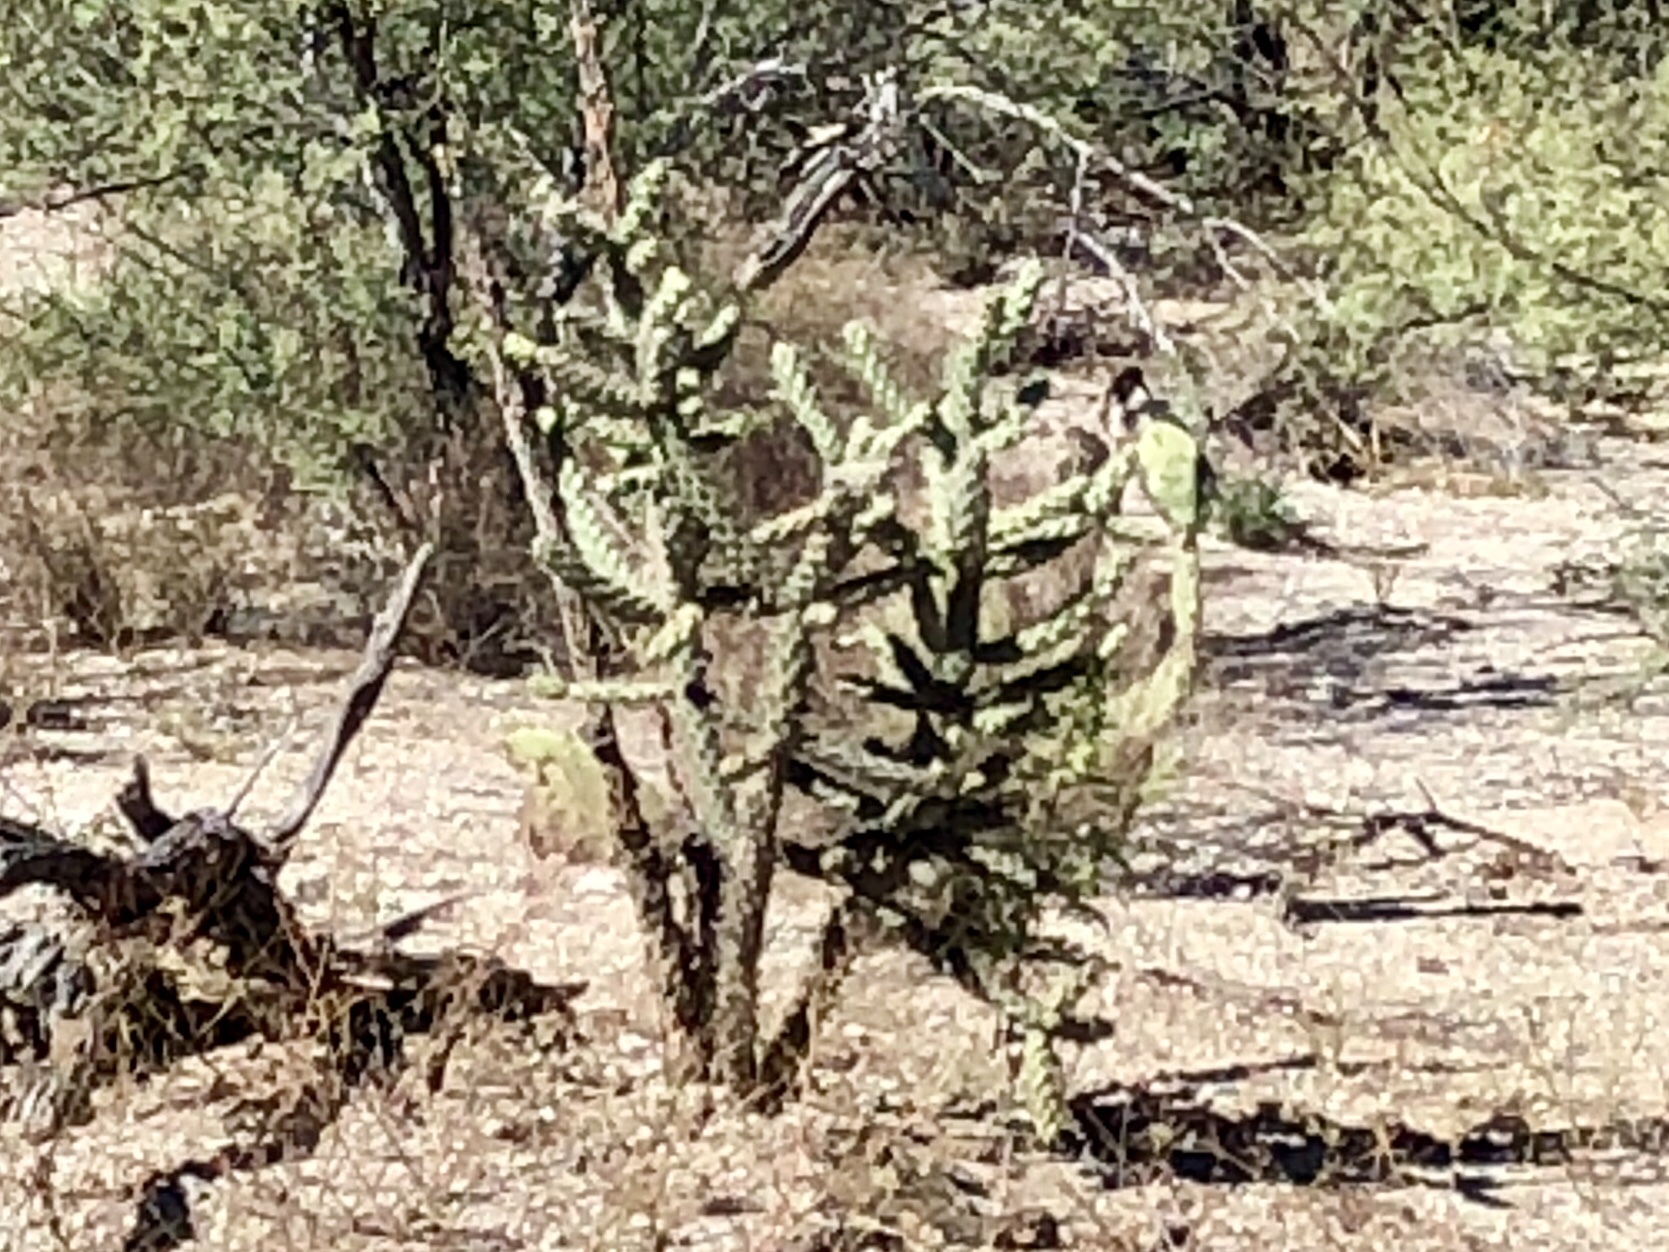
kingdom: Plantae
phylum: Tracheophyta
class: Magnoliopsida
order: Caryophyllales
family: Cactaceae
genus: Cylindropuntia
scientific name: Cylindropuntia fulgida
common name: Jumping cholla
